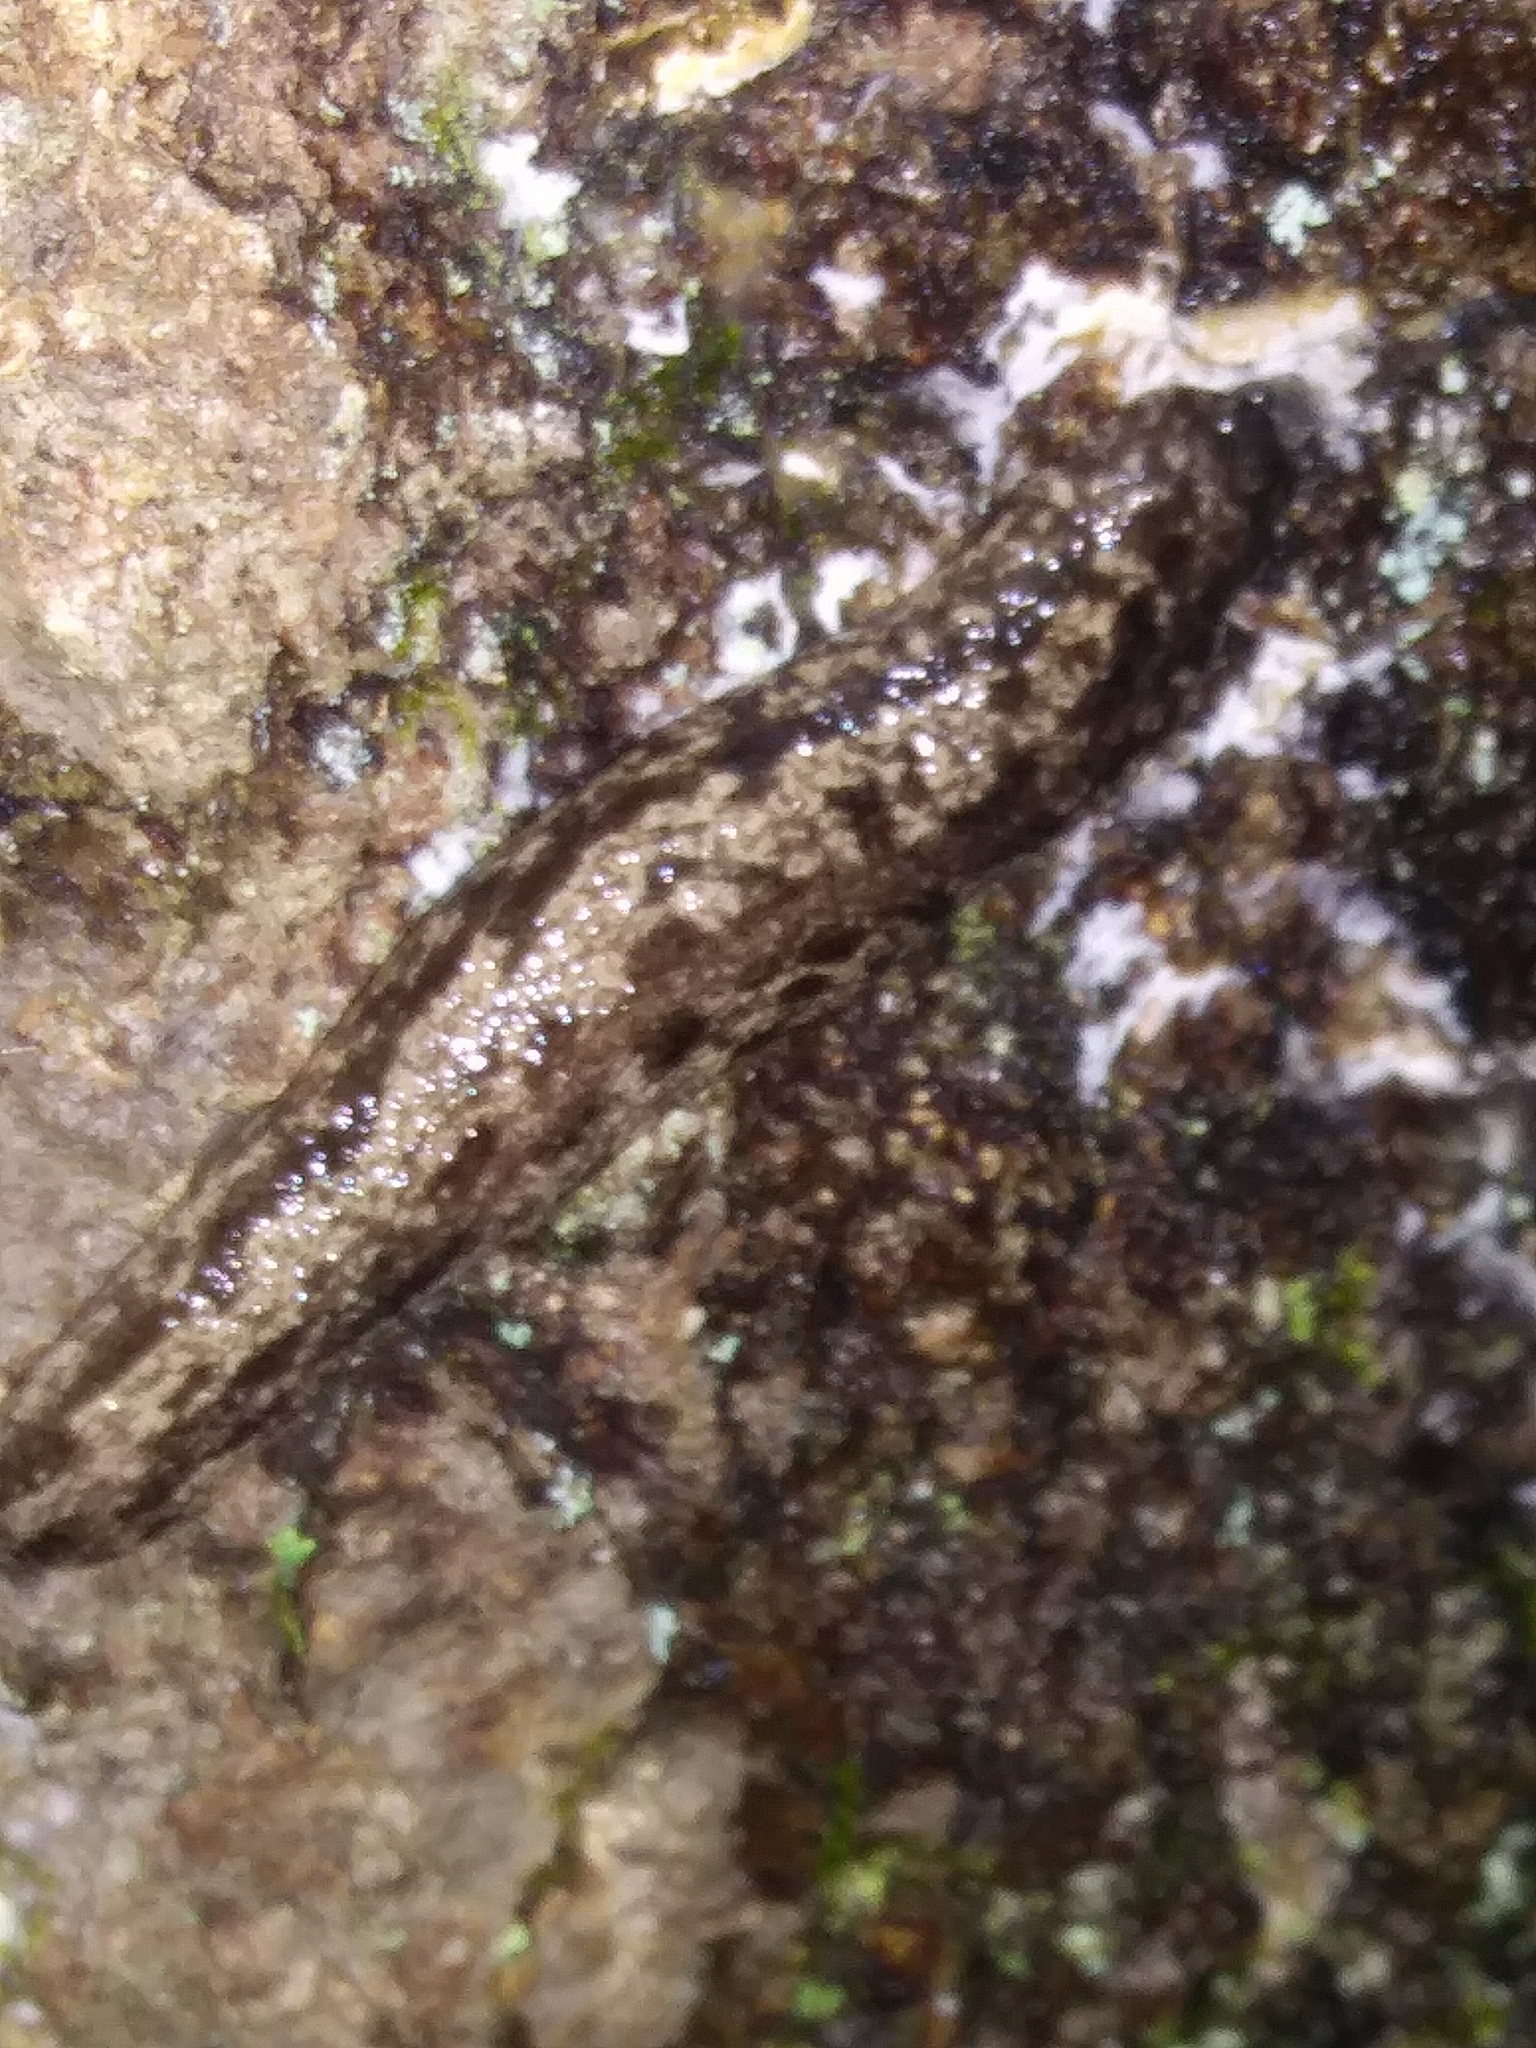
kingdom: Animalia
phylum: Mollusca
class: Gastropoda
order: Stylommatophora
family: Philomycidae
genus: Megapallifera
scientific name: Megapallifera mutabilis
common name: Changeable mantleslug
